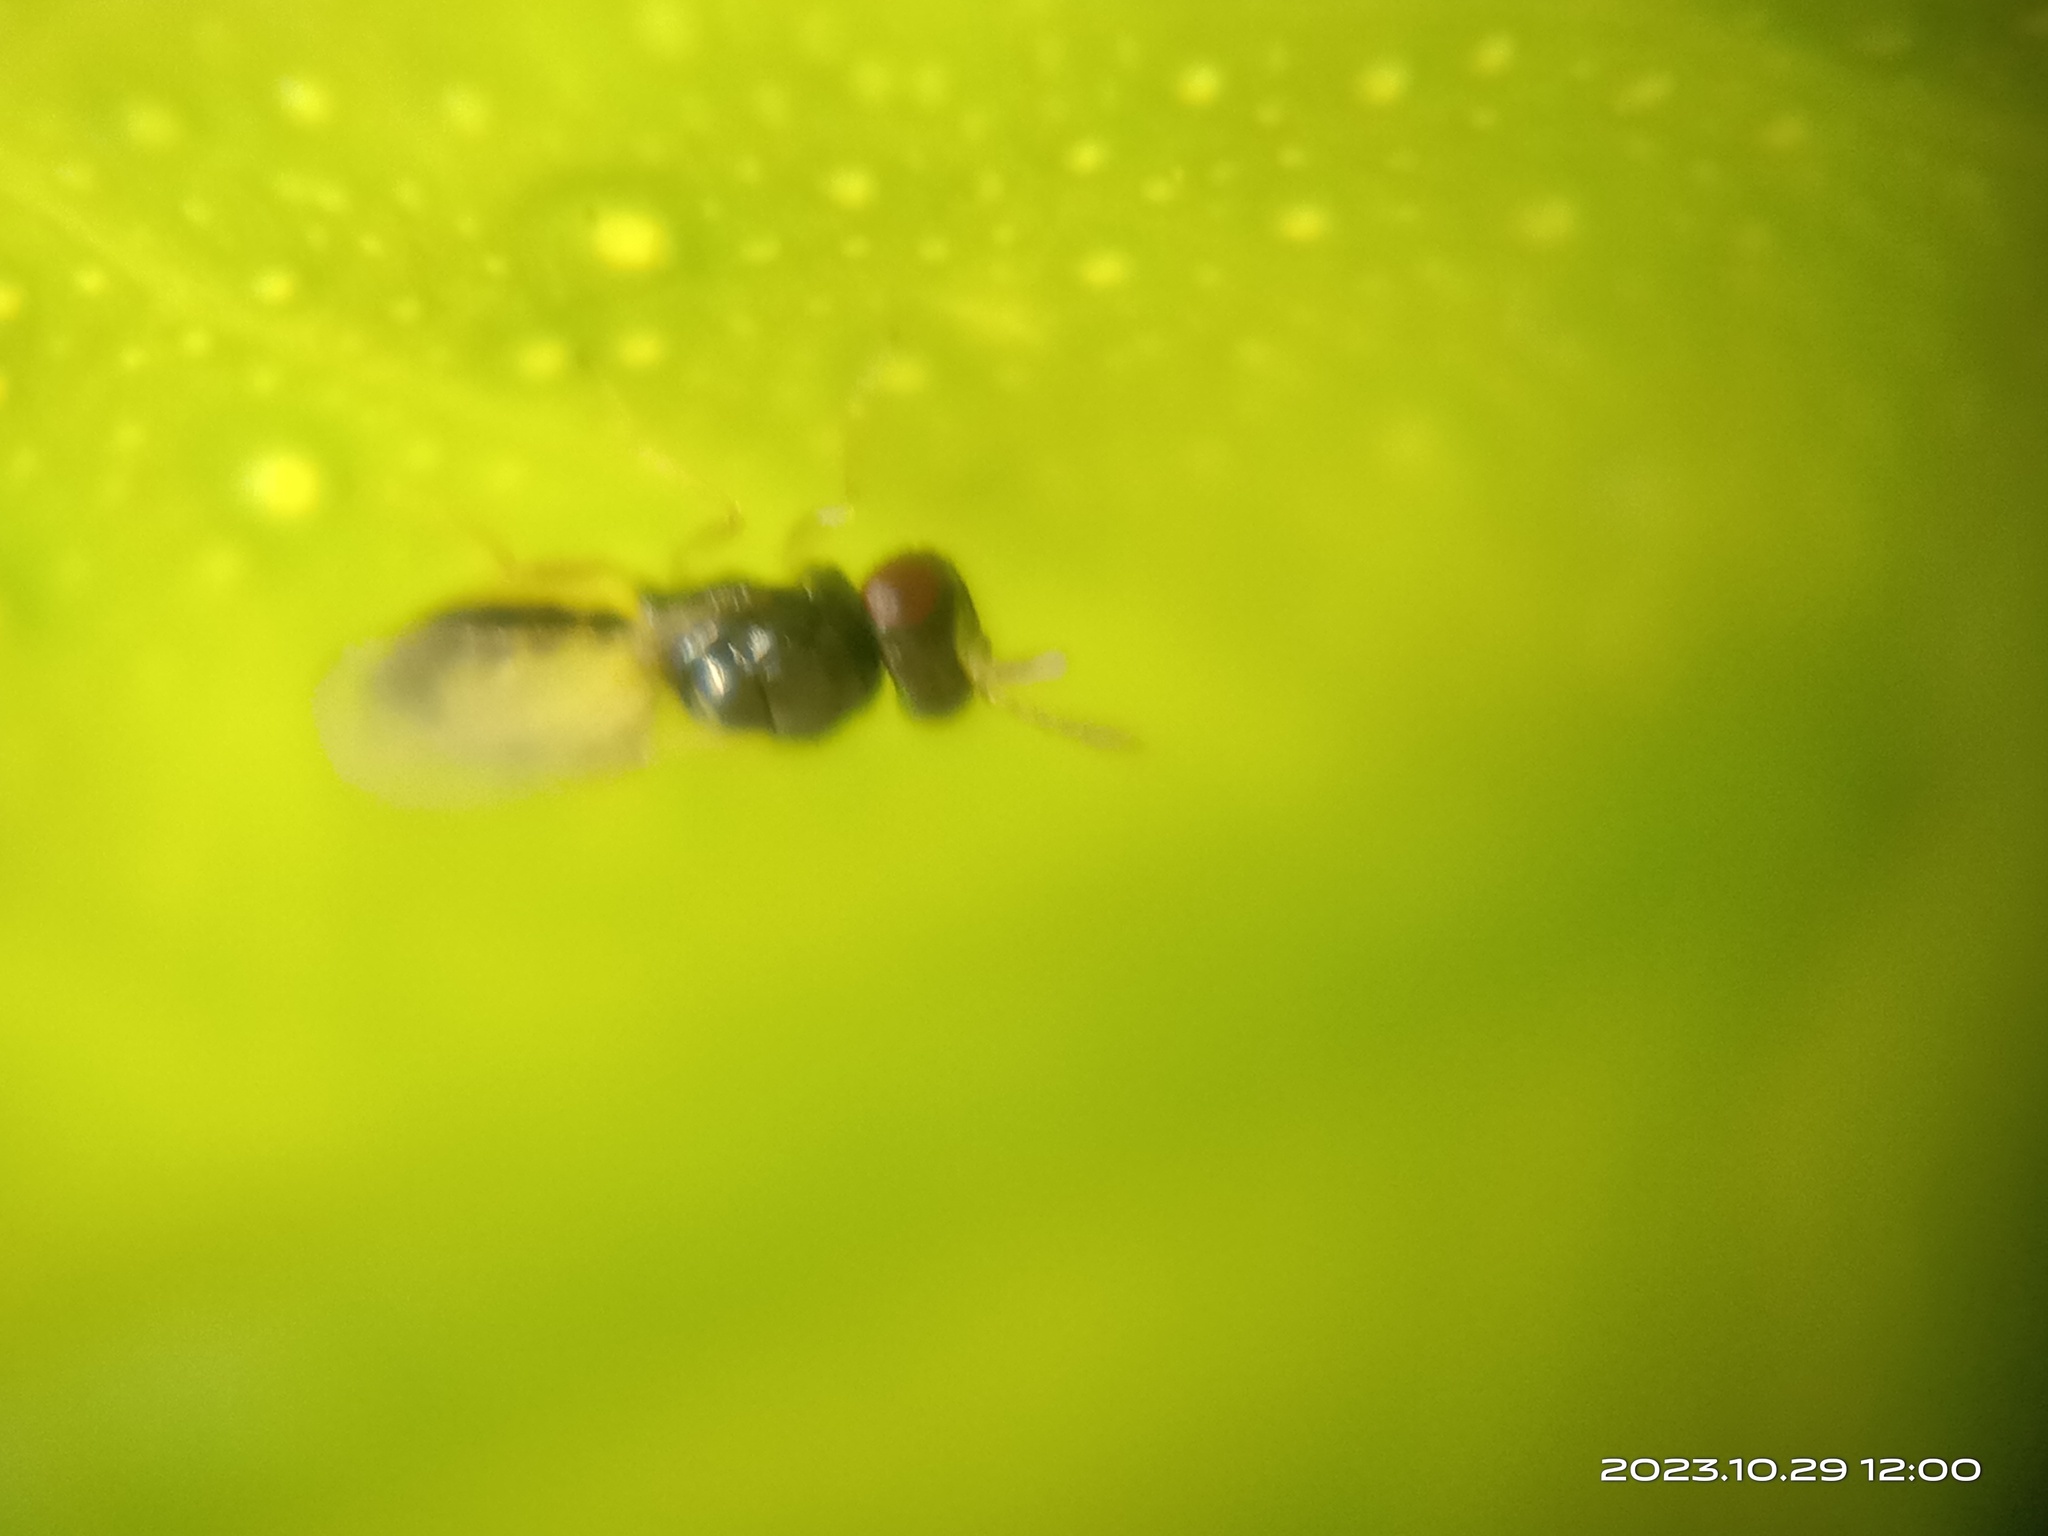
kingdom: Animalia
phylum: Arthropoda
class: Insecta
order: Hymenoptera
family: Eulophidae
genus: Tamarixia
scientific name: Tamarixia radiata
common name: Parasitoid wasp
